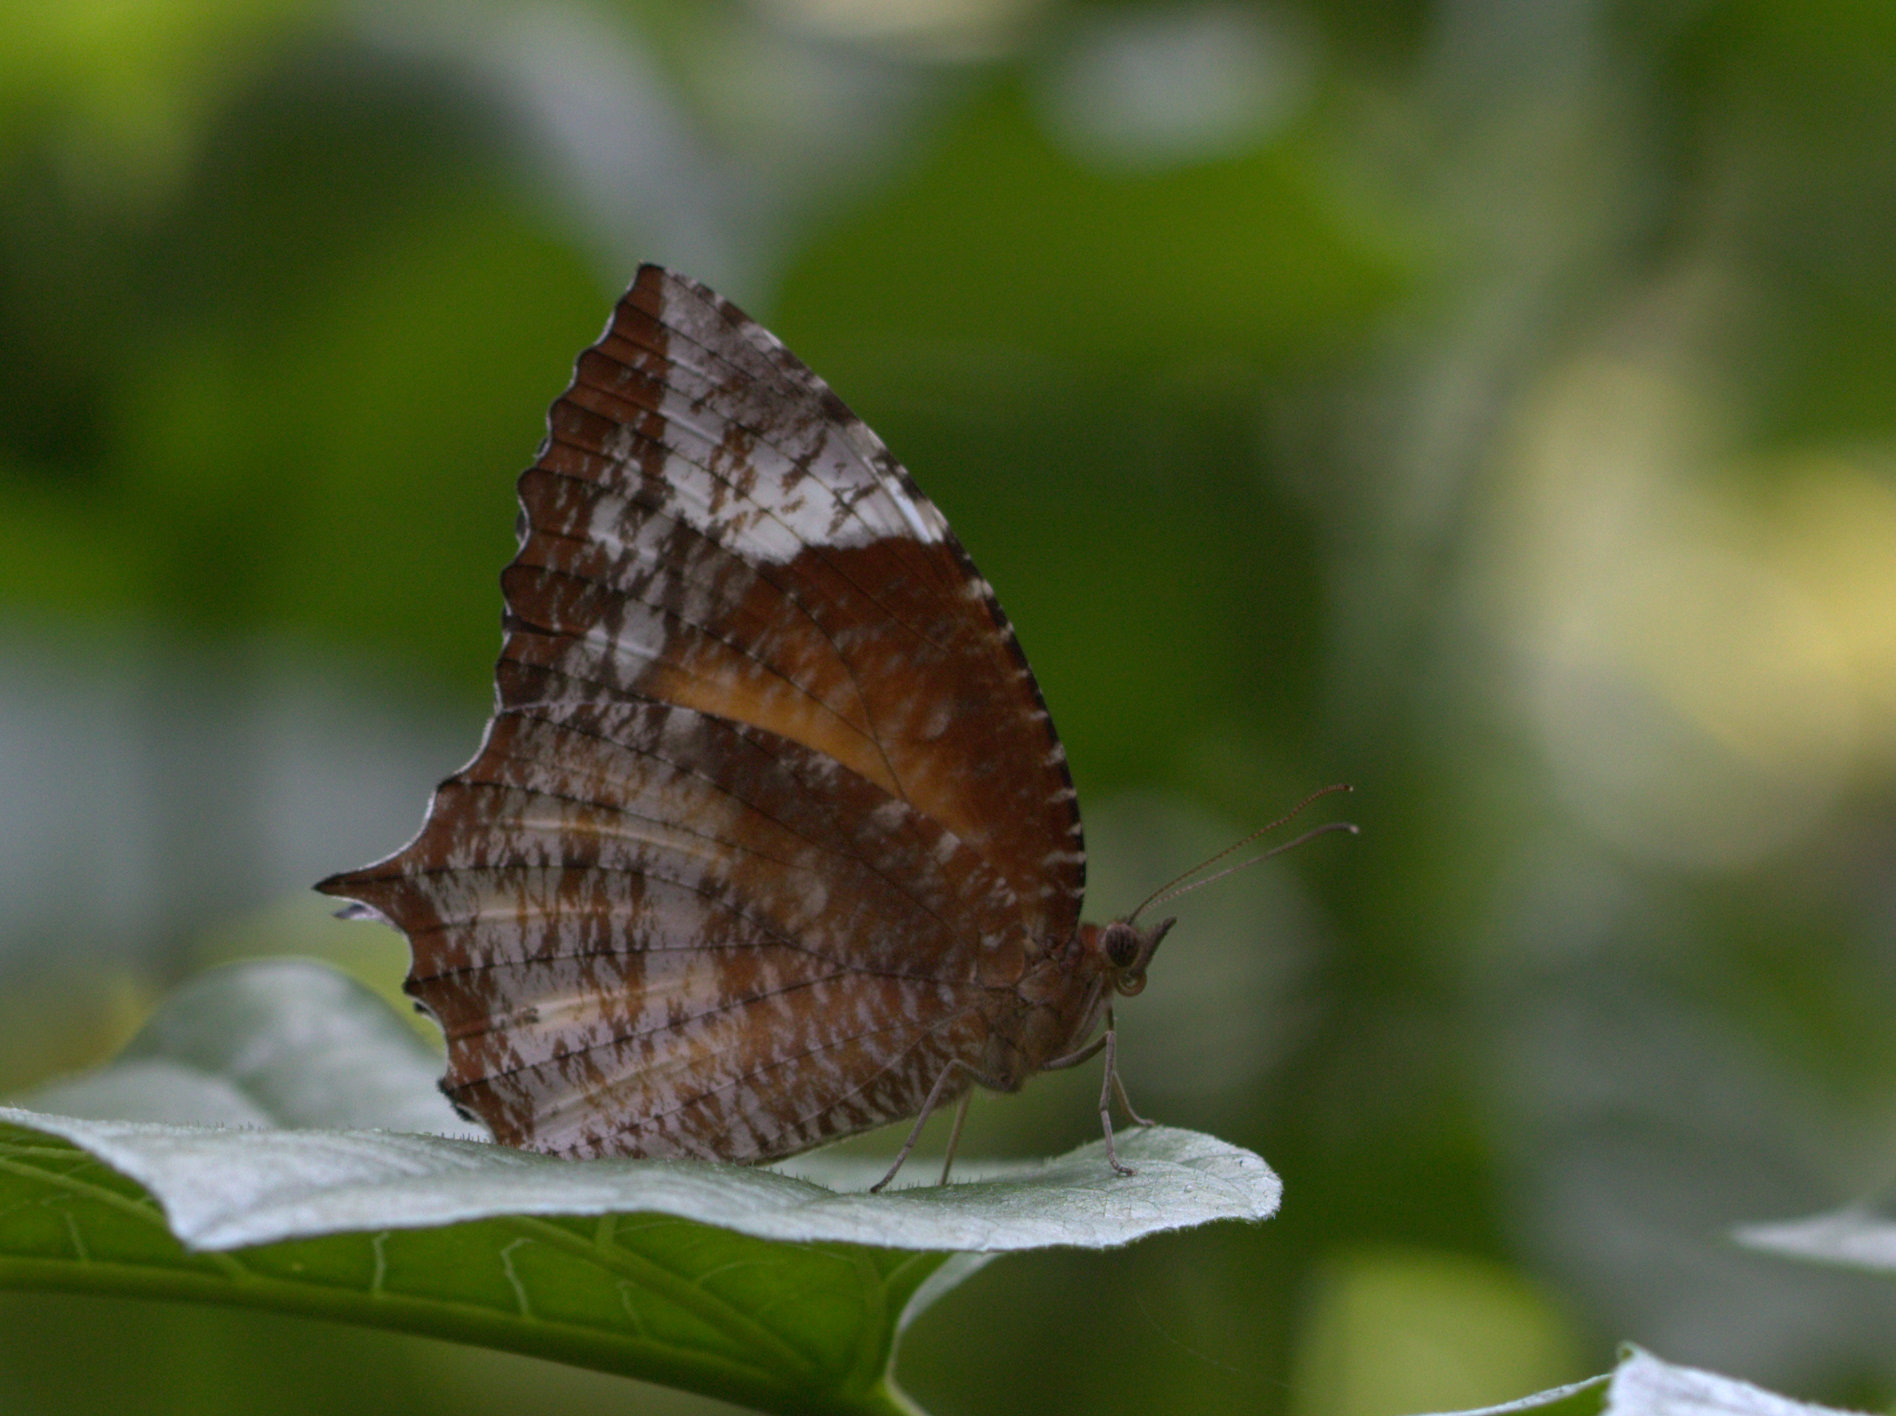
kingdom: Animalia
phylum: Arthropoda
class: Insecta
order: Lepidoptera
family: Nymphalidae
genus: Elymnias
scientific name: Elymnias caudata
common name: Tailed palmfly
